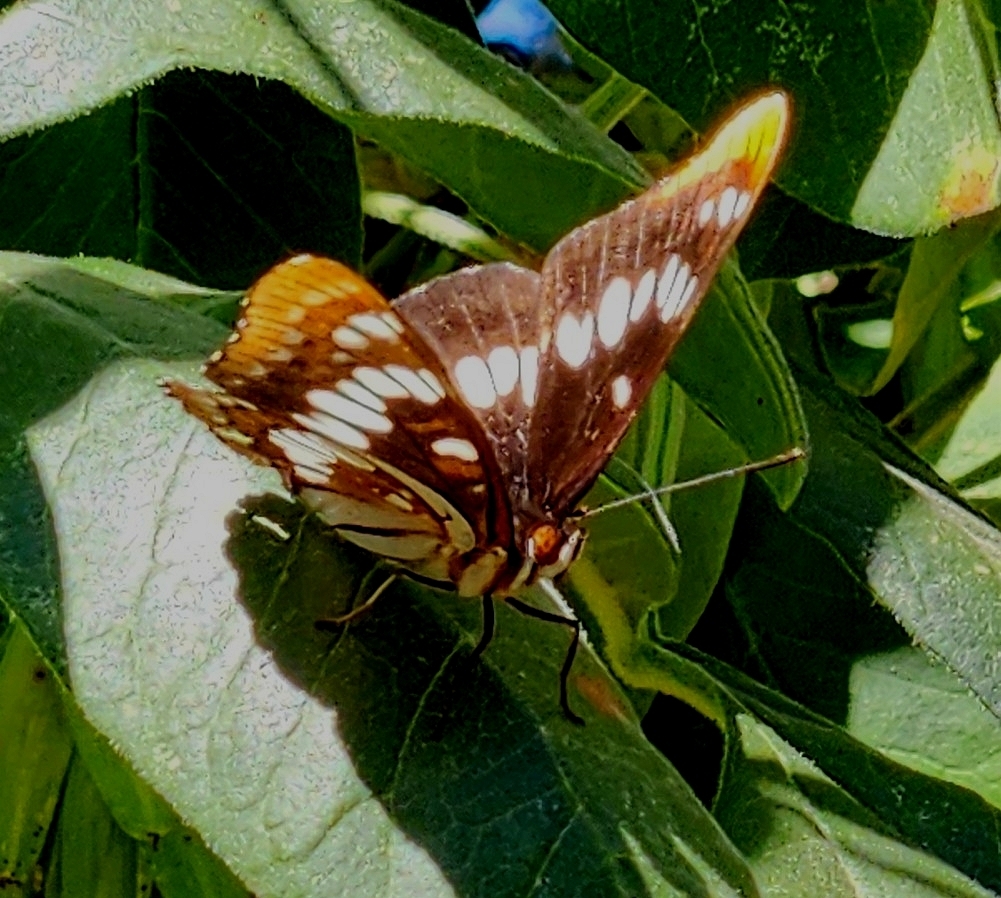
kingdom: Animalia
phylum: Arthropoda
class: Insecta
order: Lepidoptera
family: Nymphalidae
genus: Limenitis
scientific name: Limenitis lorquini
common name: Lorquin's admiral
